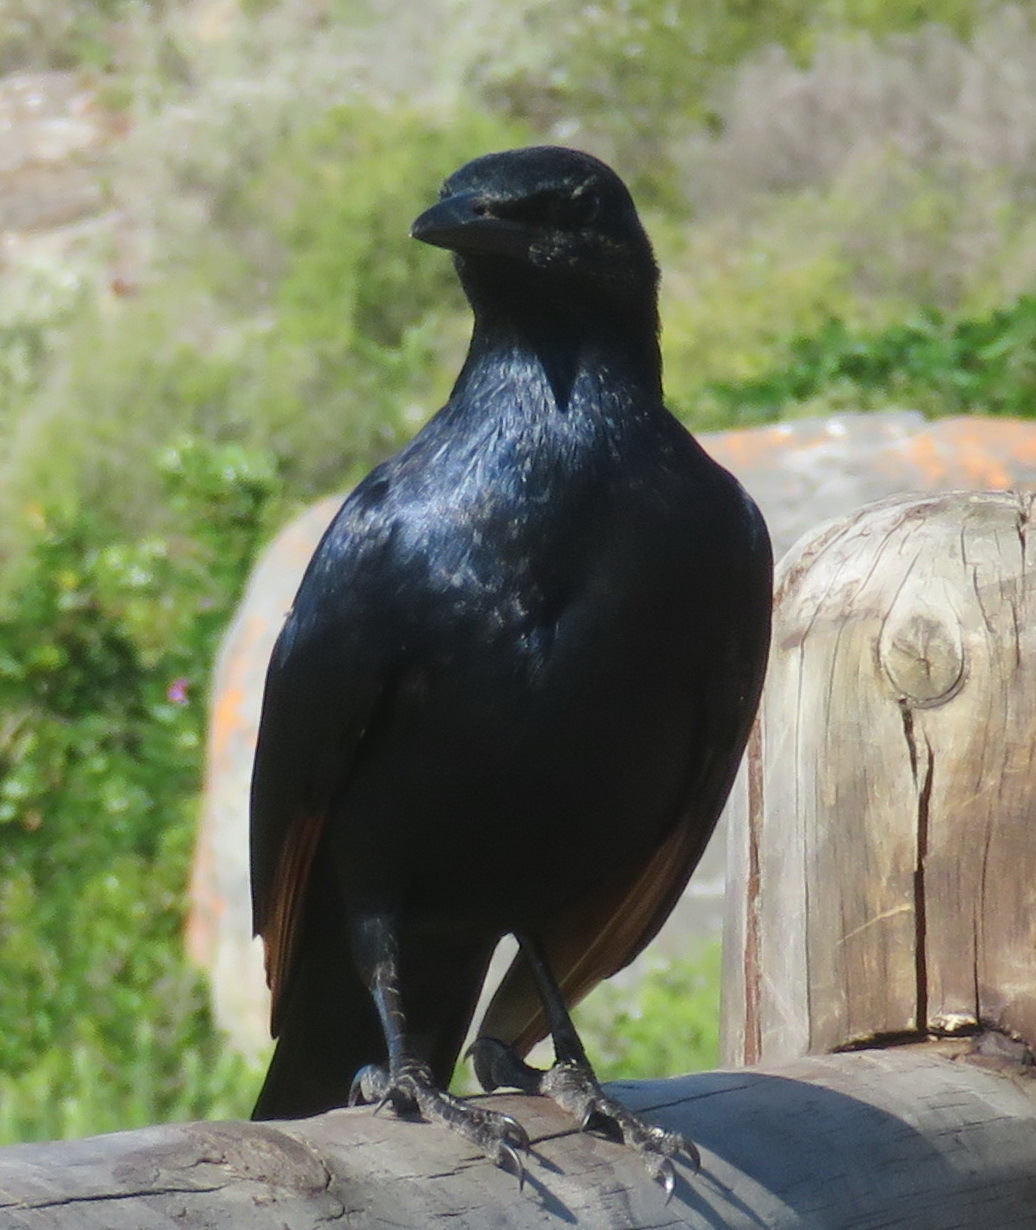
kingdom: Animalia
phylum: Chordata
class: Aves
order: Passeriformes
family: Sturnidae
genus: Onychognathus
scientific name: Onychognathus morio
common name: Red-winged starling
